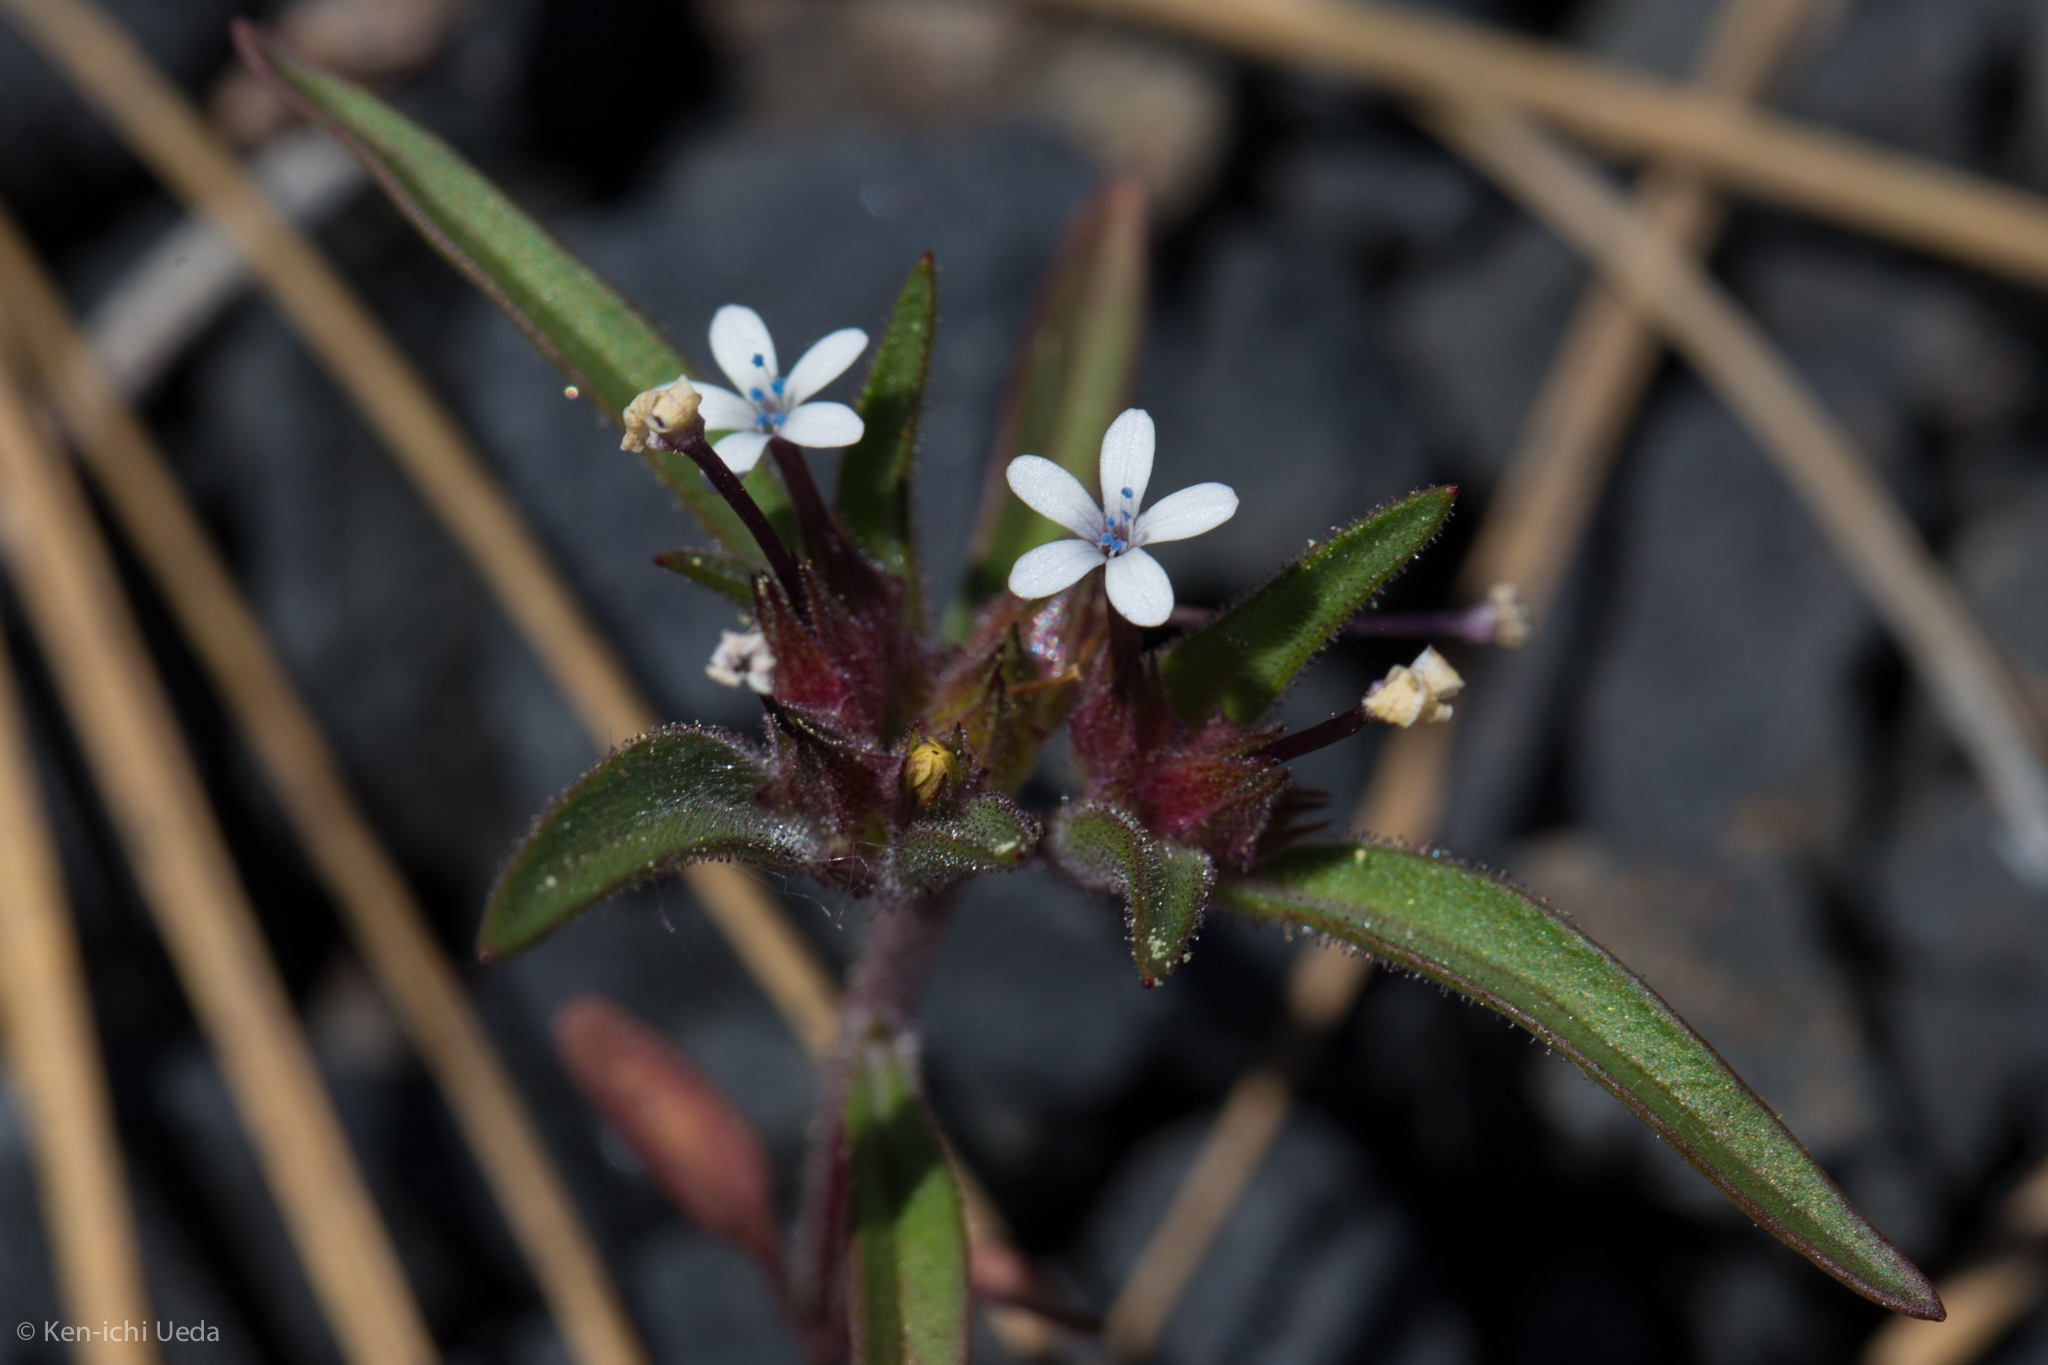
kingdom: Plantae
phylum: Tracheophyta
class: Magnoliopsida
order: Ericales
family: Polemoniaceae
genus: Collomia
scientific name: Collomia tinctoria
